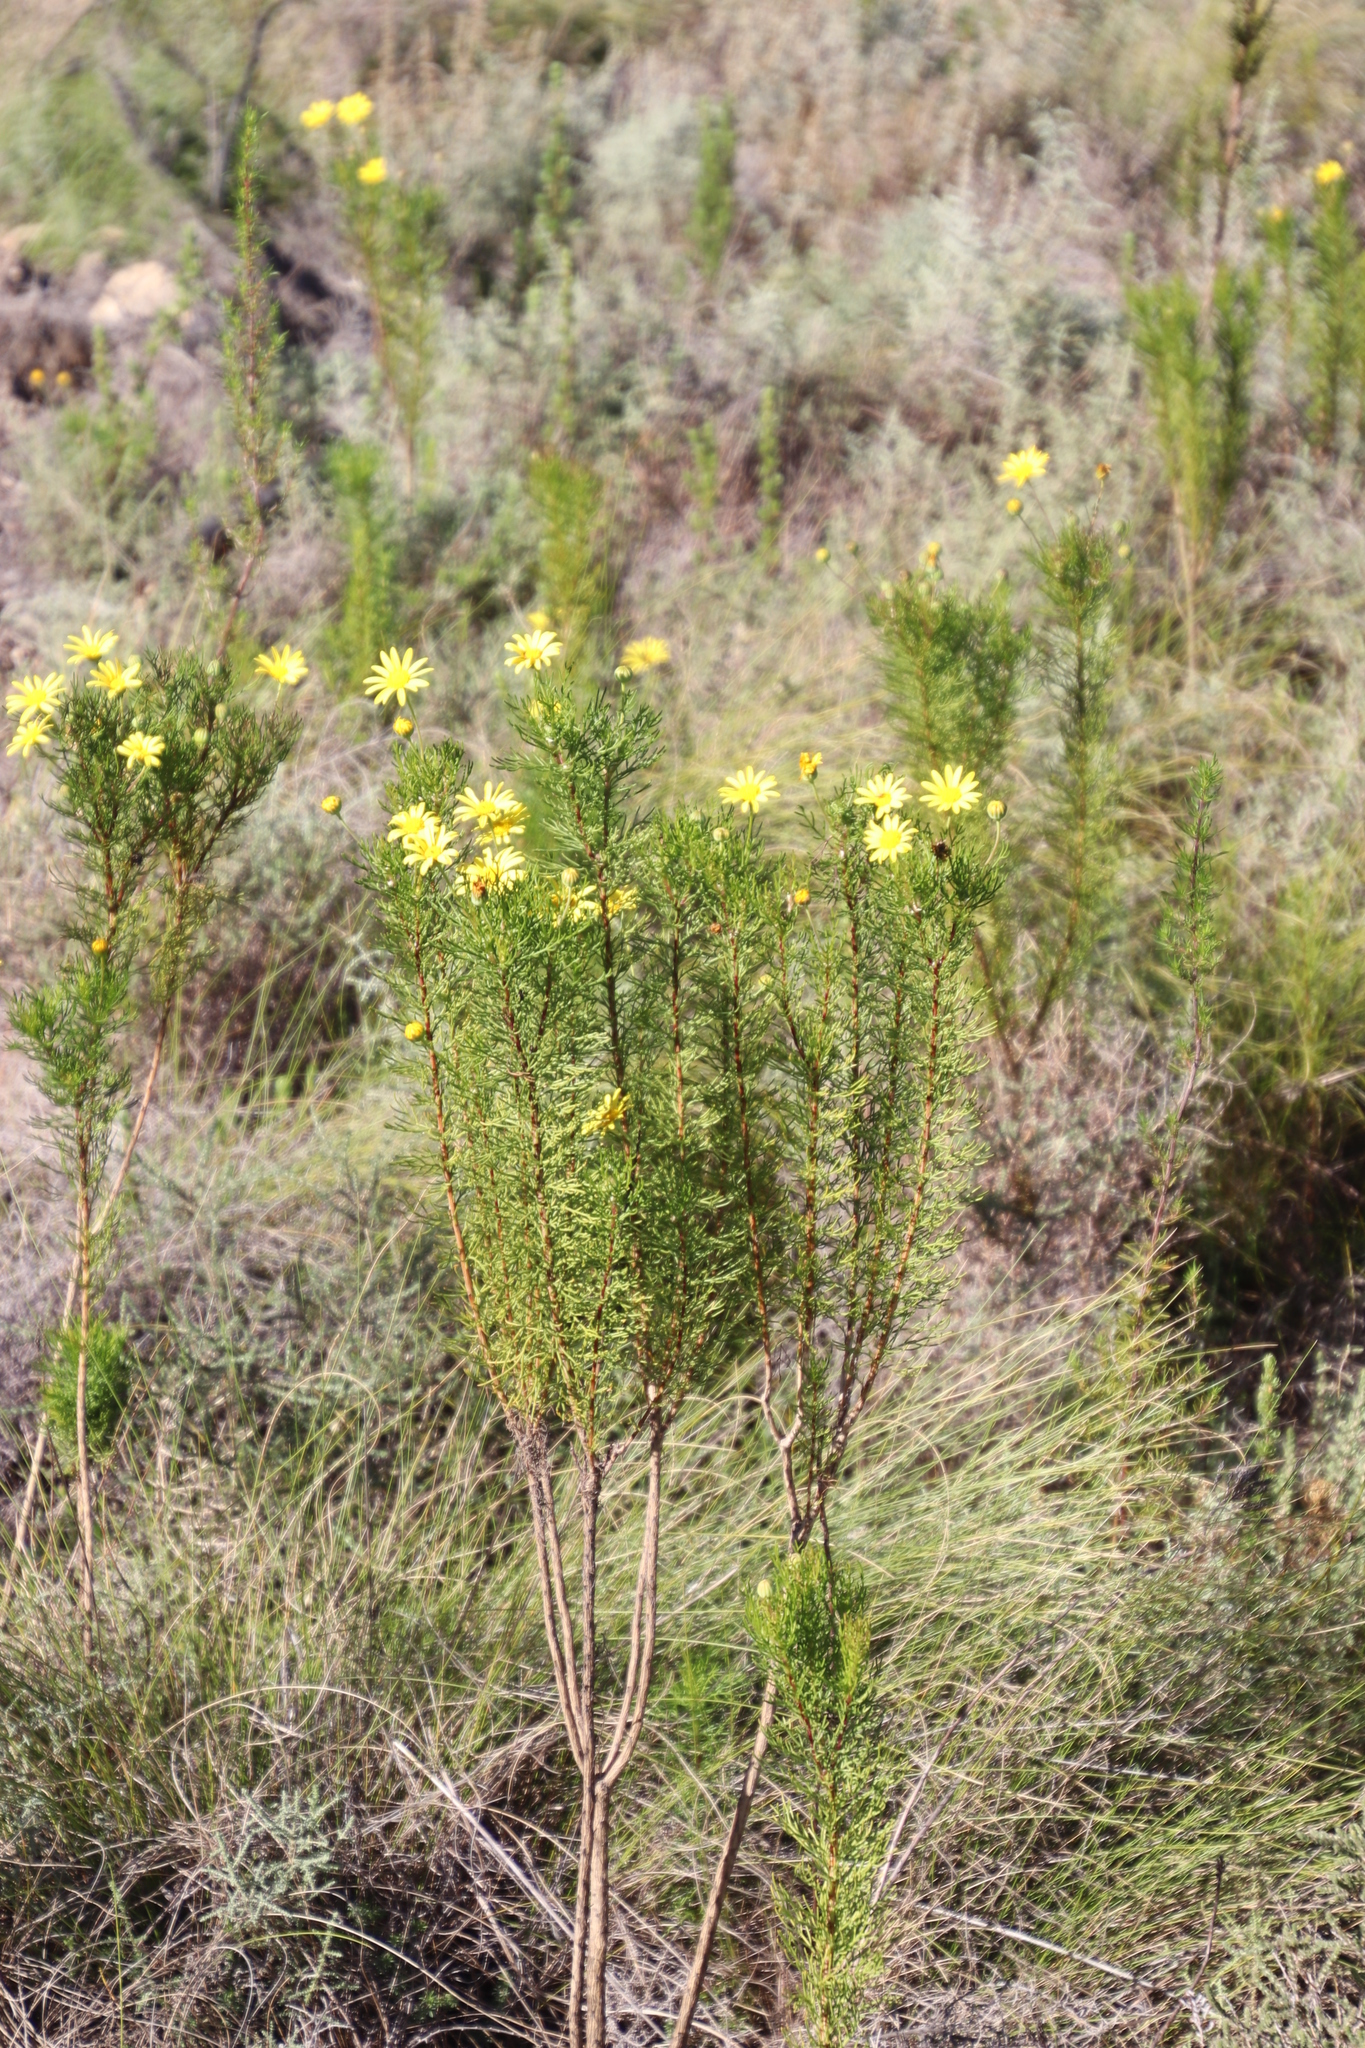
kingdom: Plantae
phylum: Tracheophyta
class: Magnoliopsida
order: Asterales
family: Asteraceae
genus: Euryops
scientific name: Euryops abrotanifolius
